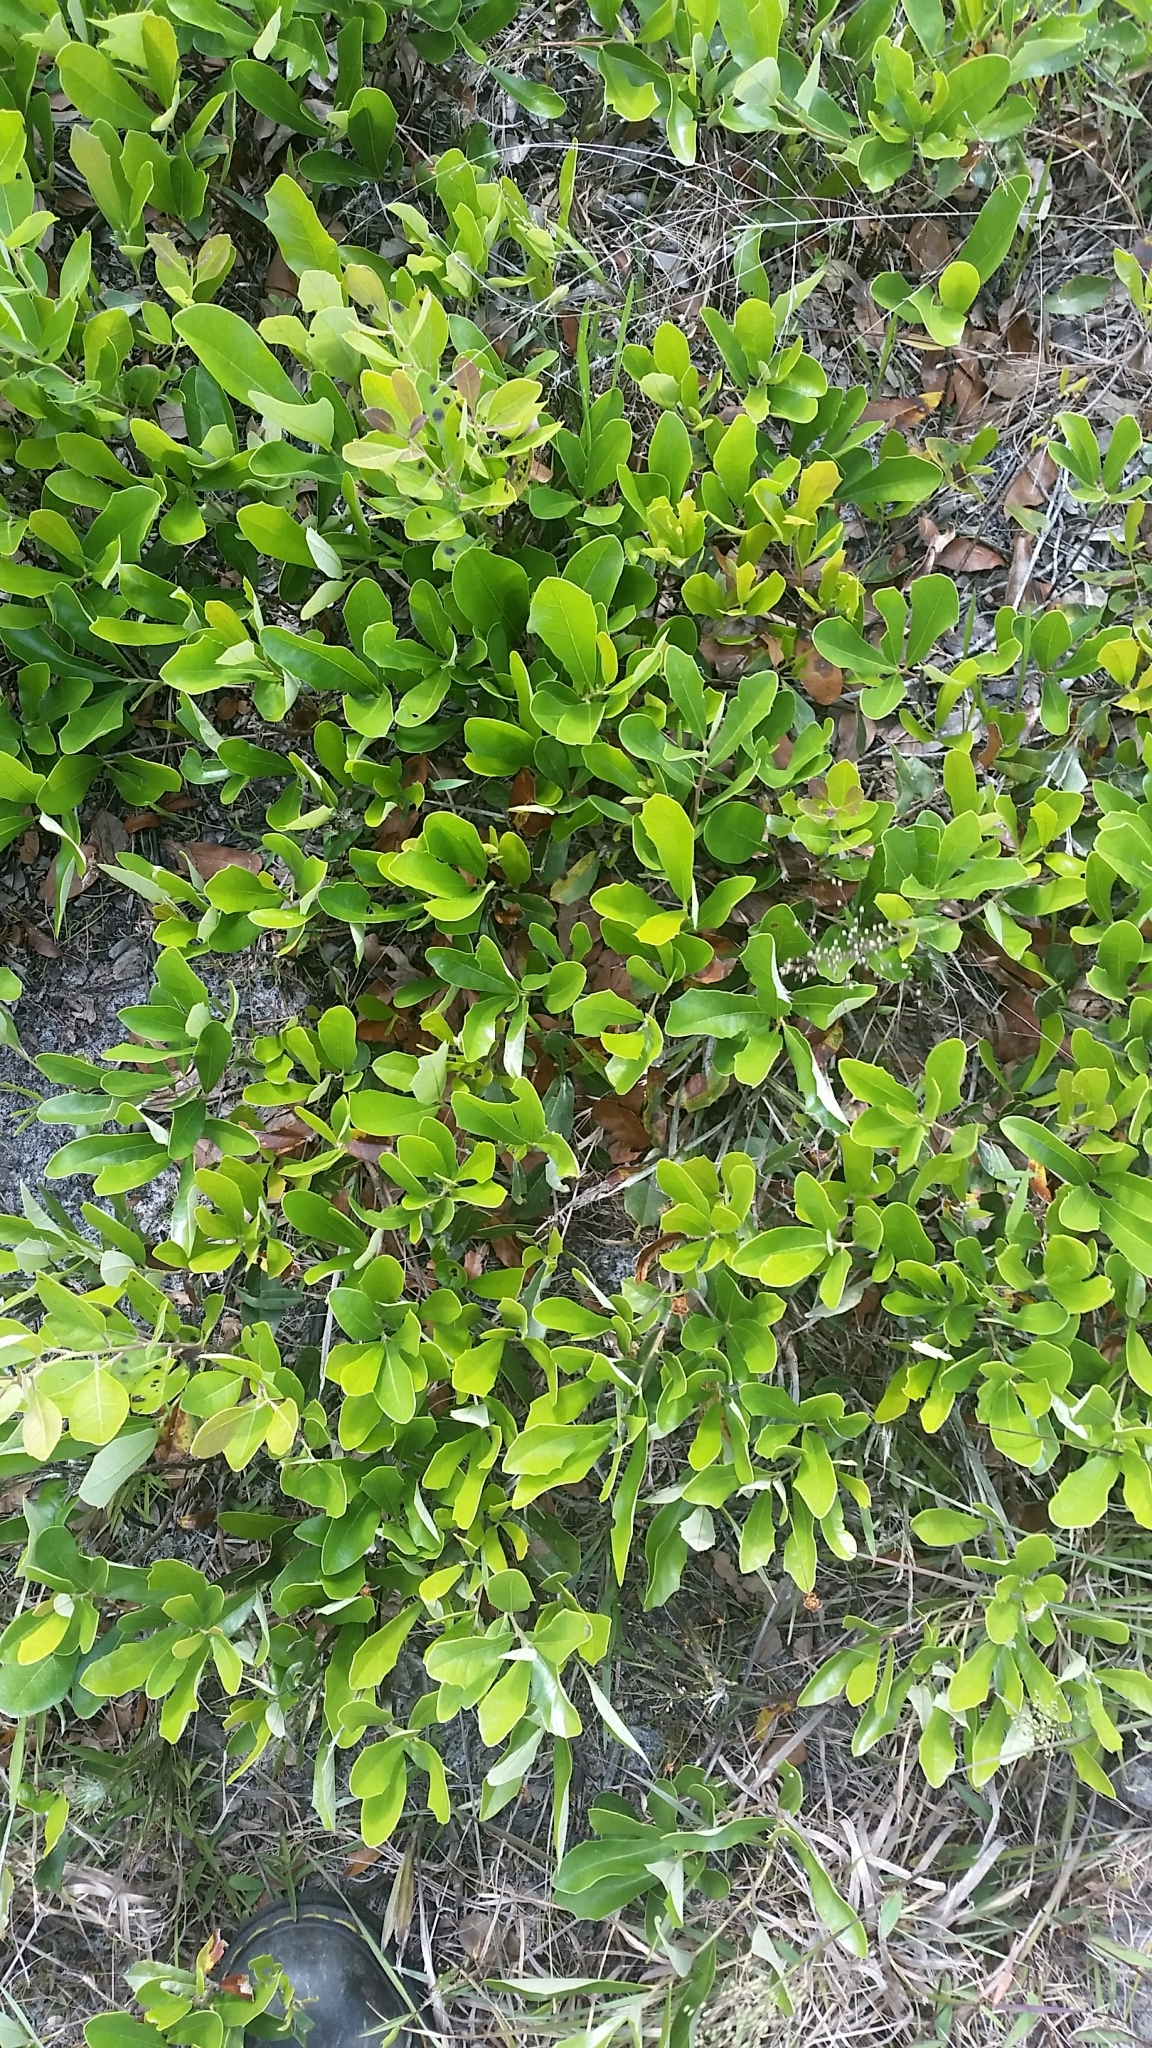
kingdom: Plantae
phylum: Tracheophyta
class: Magnoliopsida
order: Fagales
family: Fagaceae
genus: Quercus
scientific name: Quercus minima
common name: Dwarf live oak
